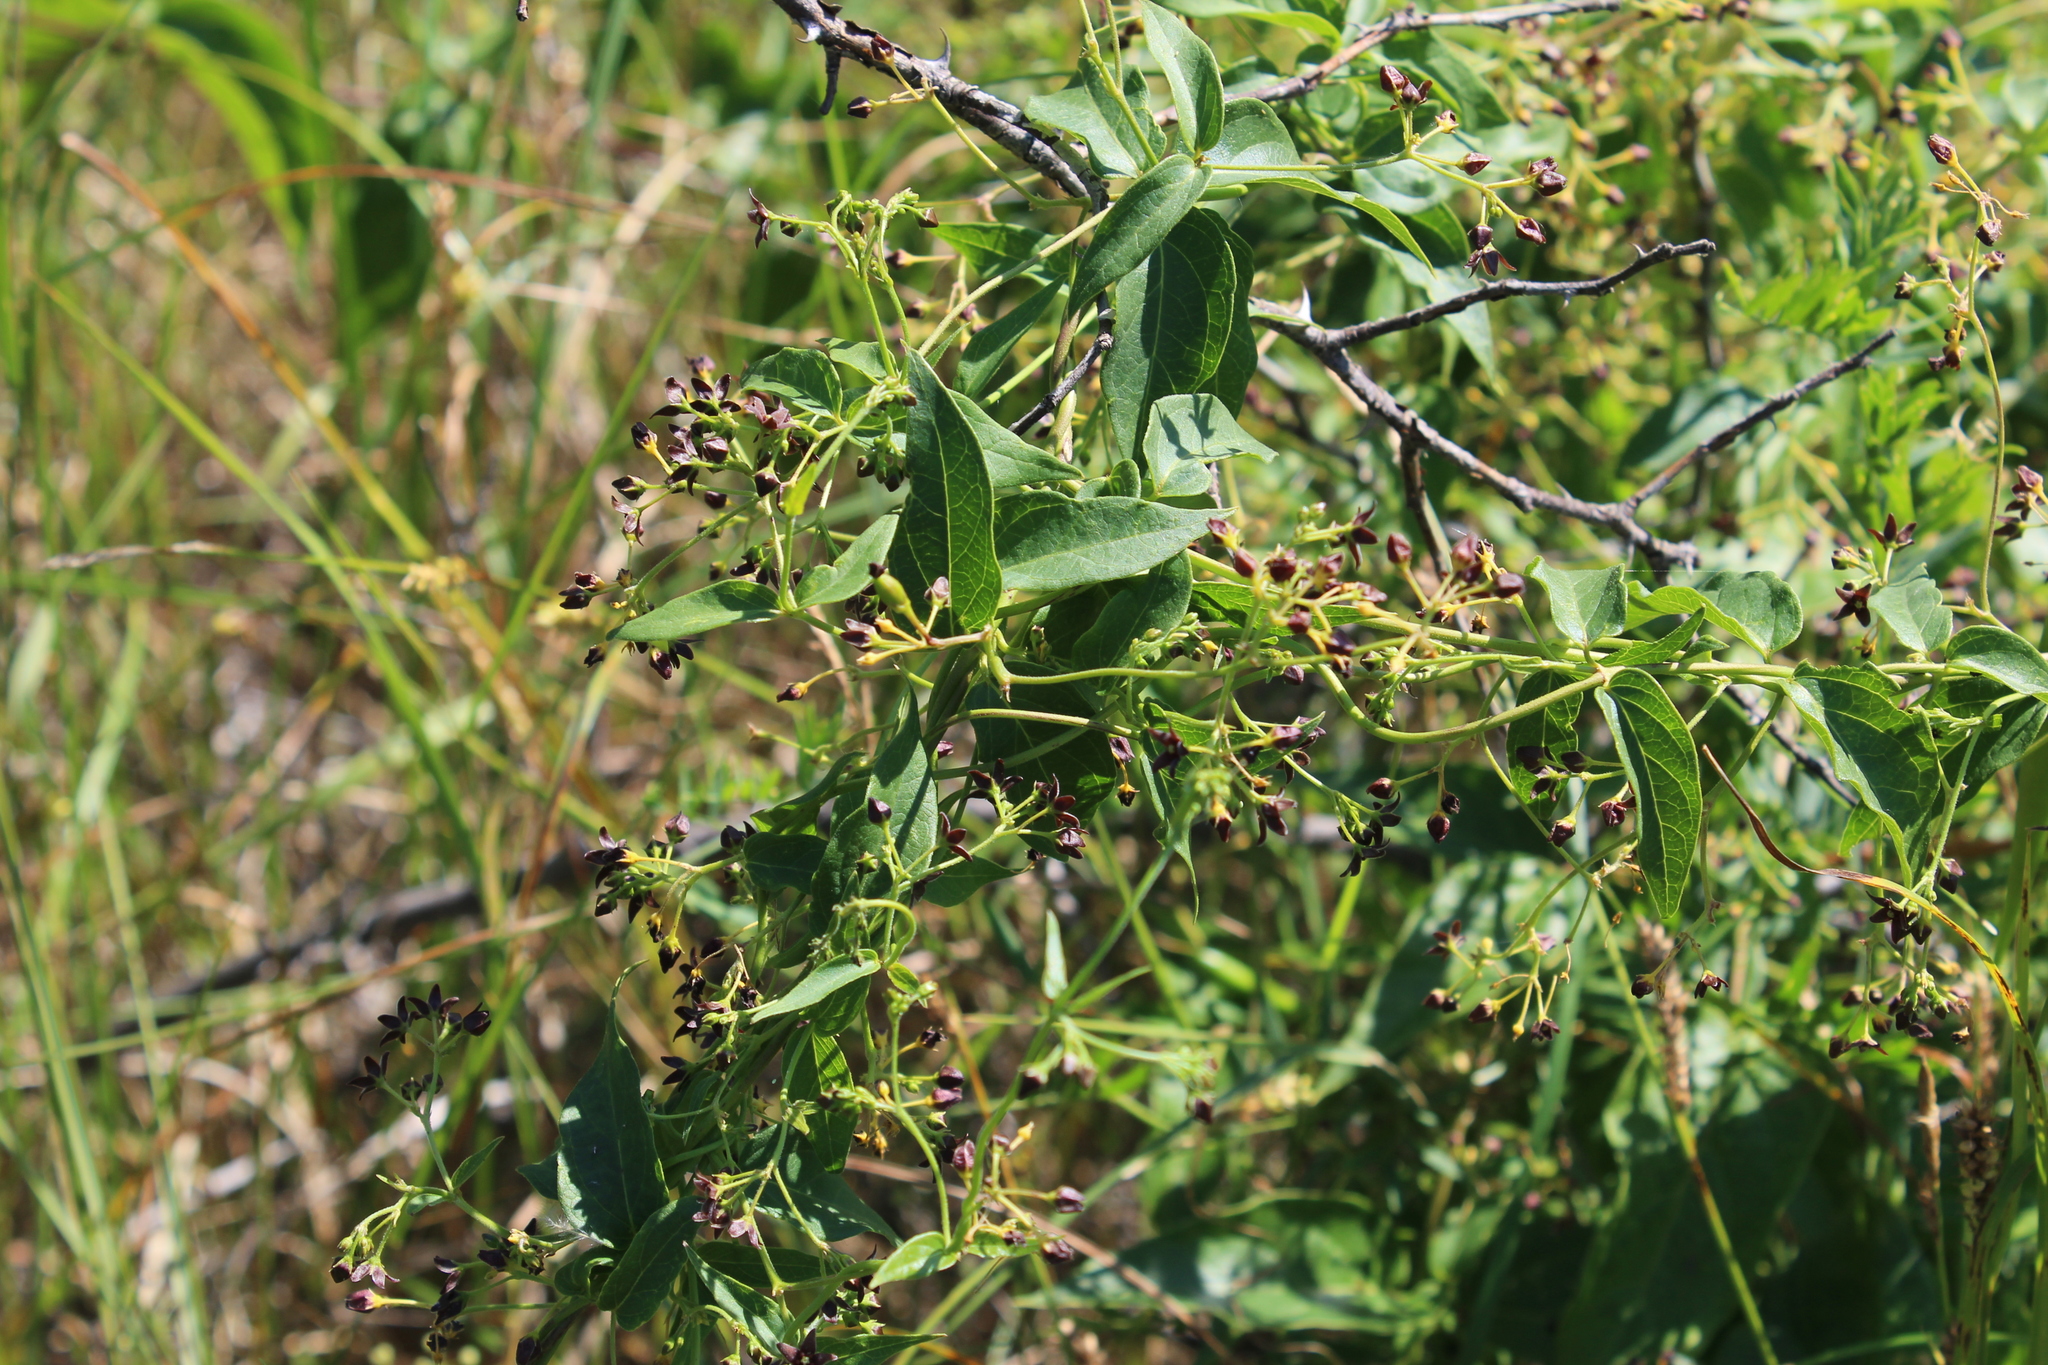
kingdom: Plantae
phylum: Tracheophyta
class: Magnoliopsida
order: Gentianales
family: Apocynaceae
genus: Vincetoxicum
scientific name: Vincetoxicum scandens
